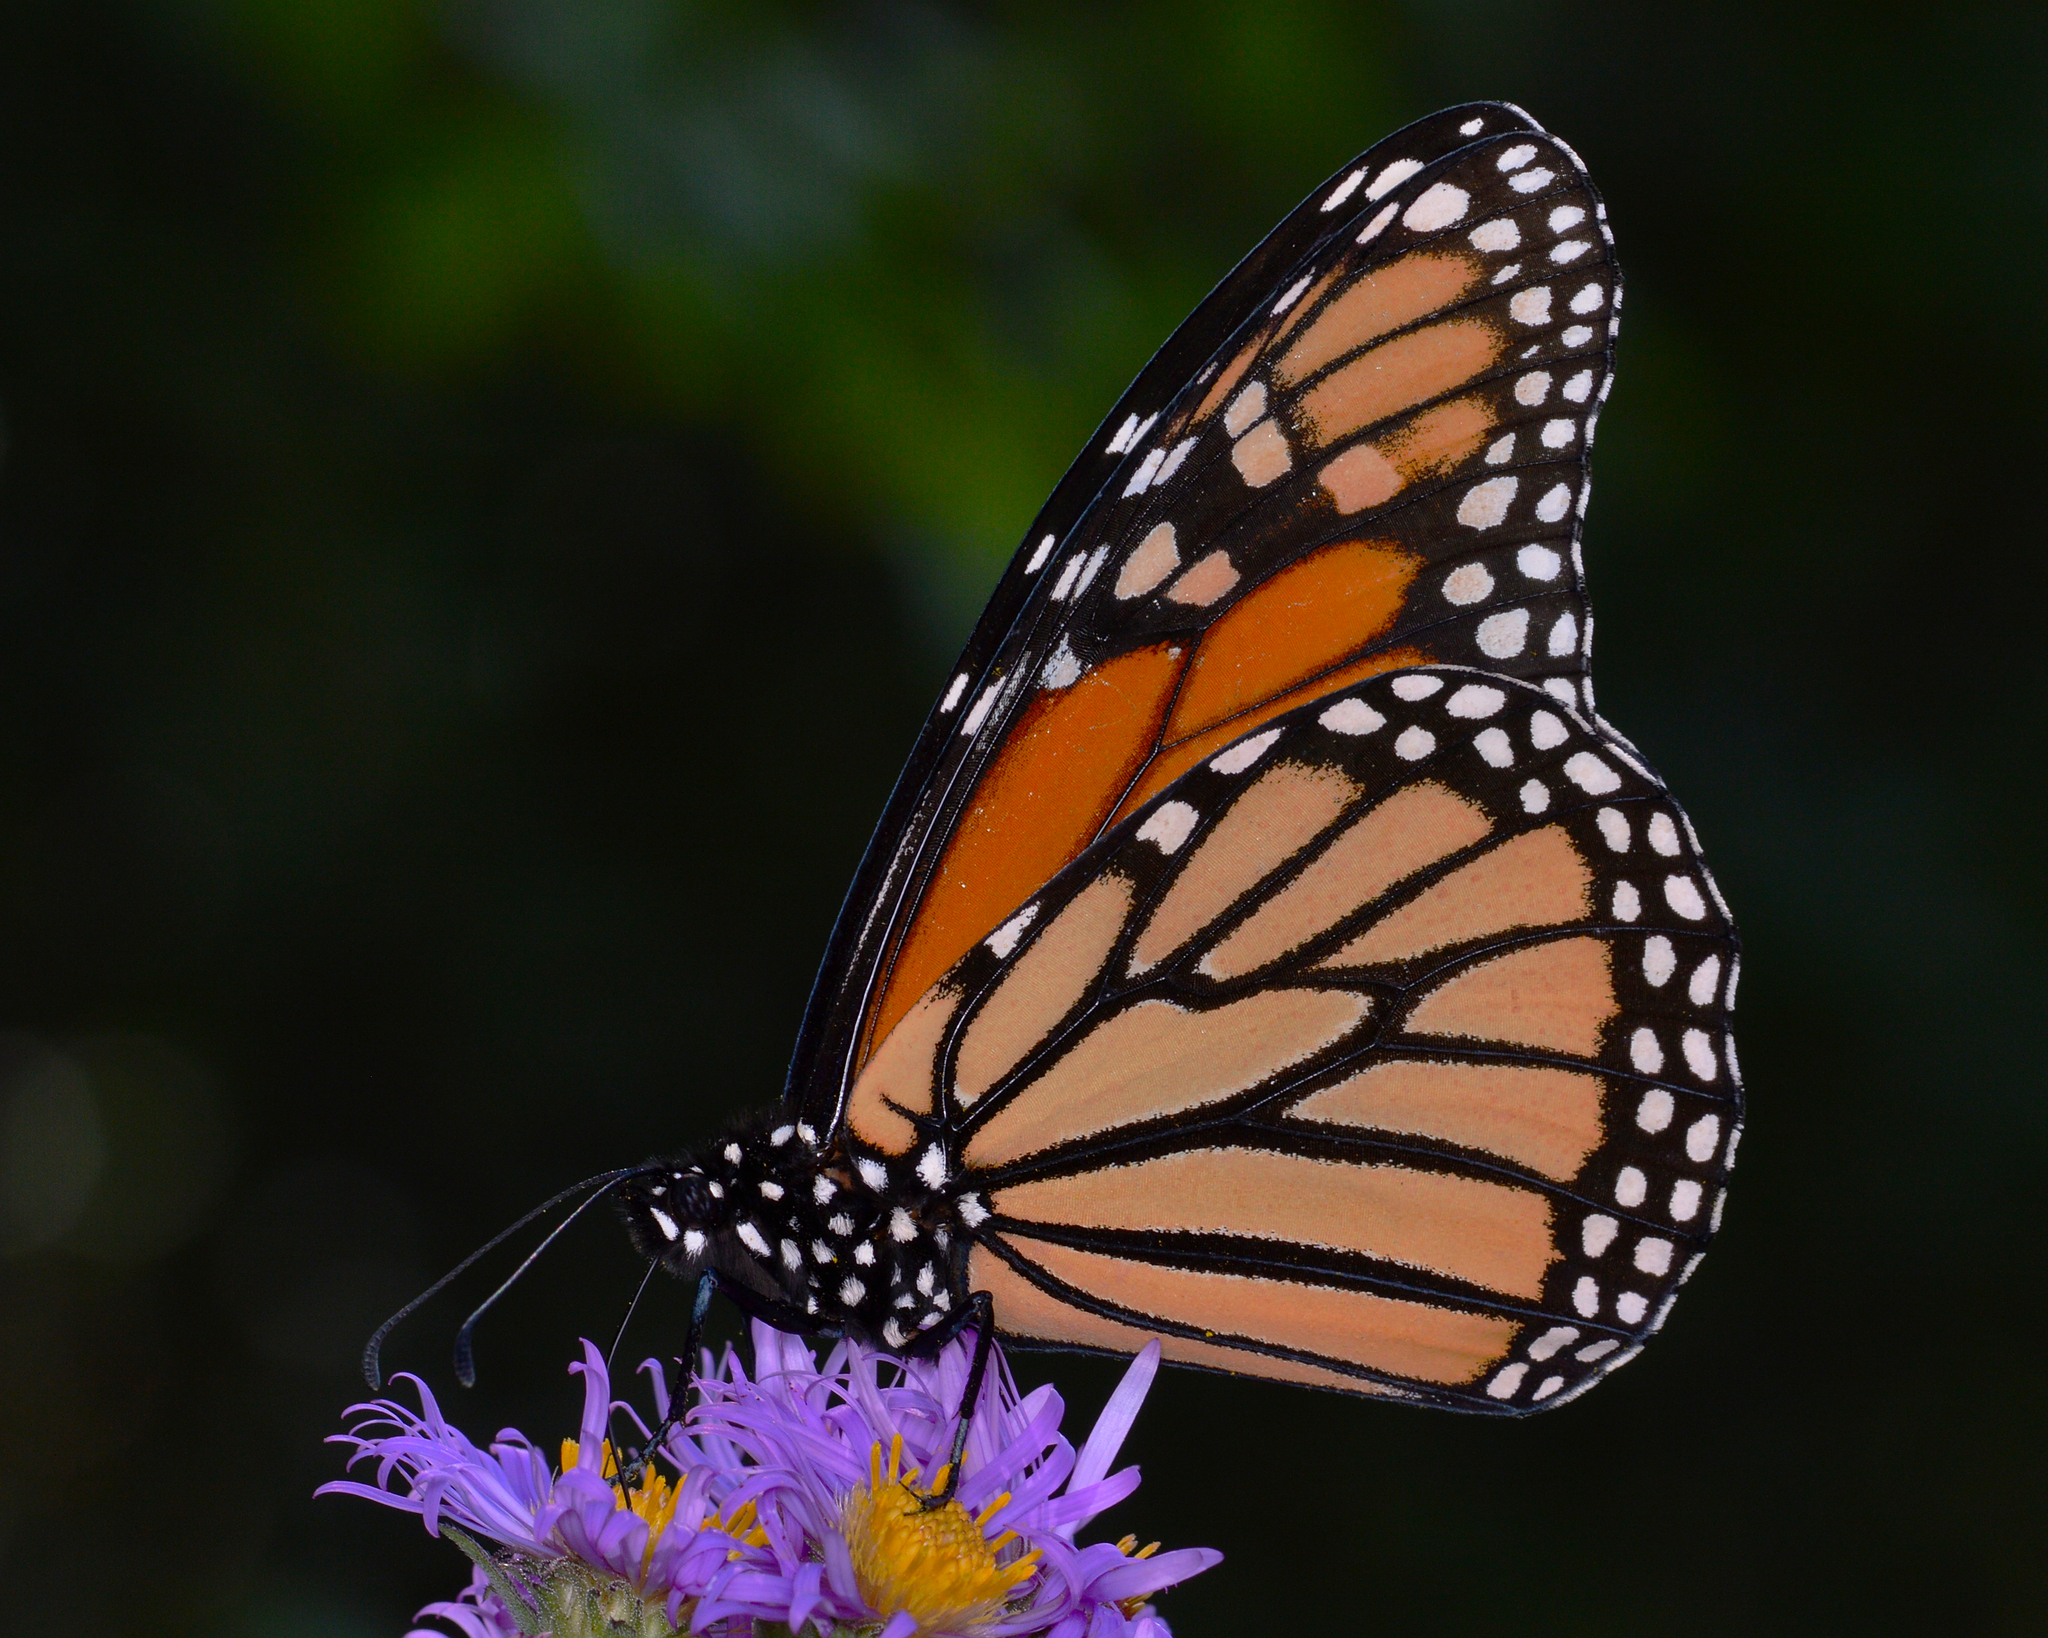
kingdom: Animalia
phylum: Arthropoda
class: Insecta
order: Lepidoptera
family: Nymphalidae
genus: Danaus
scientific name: Danaus plexippus
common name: Monarch
